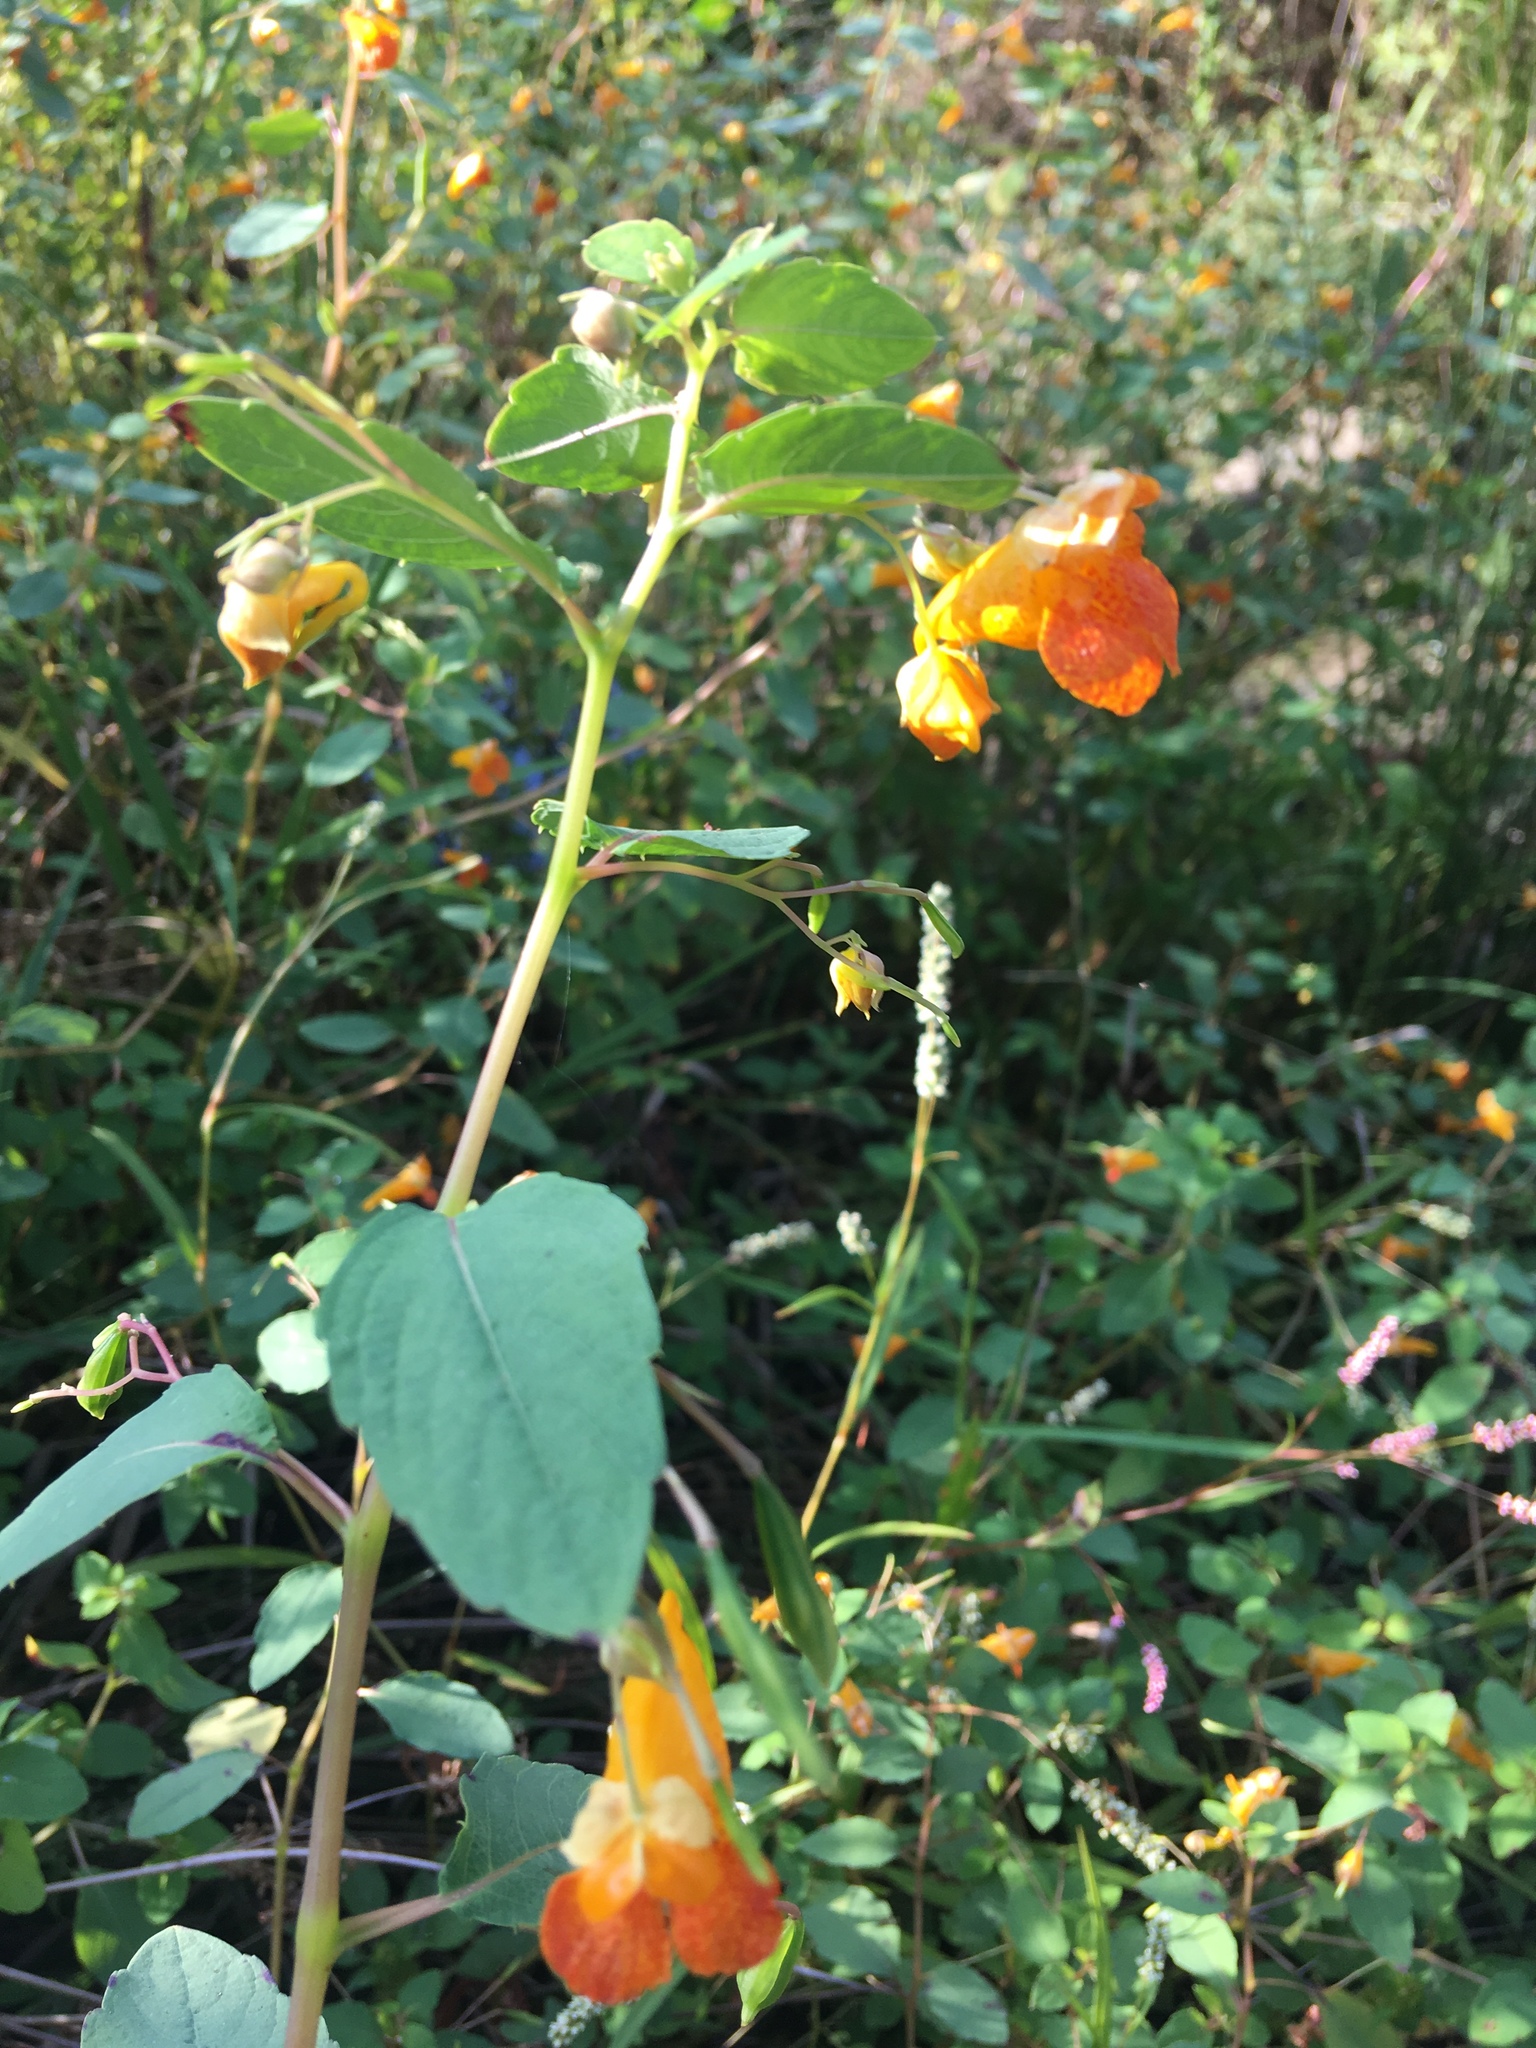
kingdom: Plantae
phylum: Tracheophyta
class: Magnoliopsida
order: Ericales
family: Balsaminaceae
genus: Impatiens
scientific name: Impatiens capensis
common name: Orange balsam
